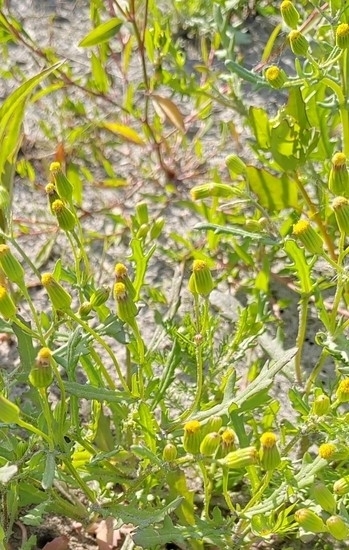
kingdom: Plantae
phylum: Tracheophyta
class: Magnoliopsida
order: Asterales
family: Asteraceae
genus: Senecio
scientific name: Senecio dubitabilis
